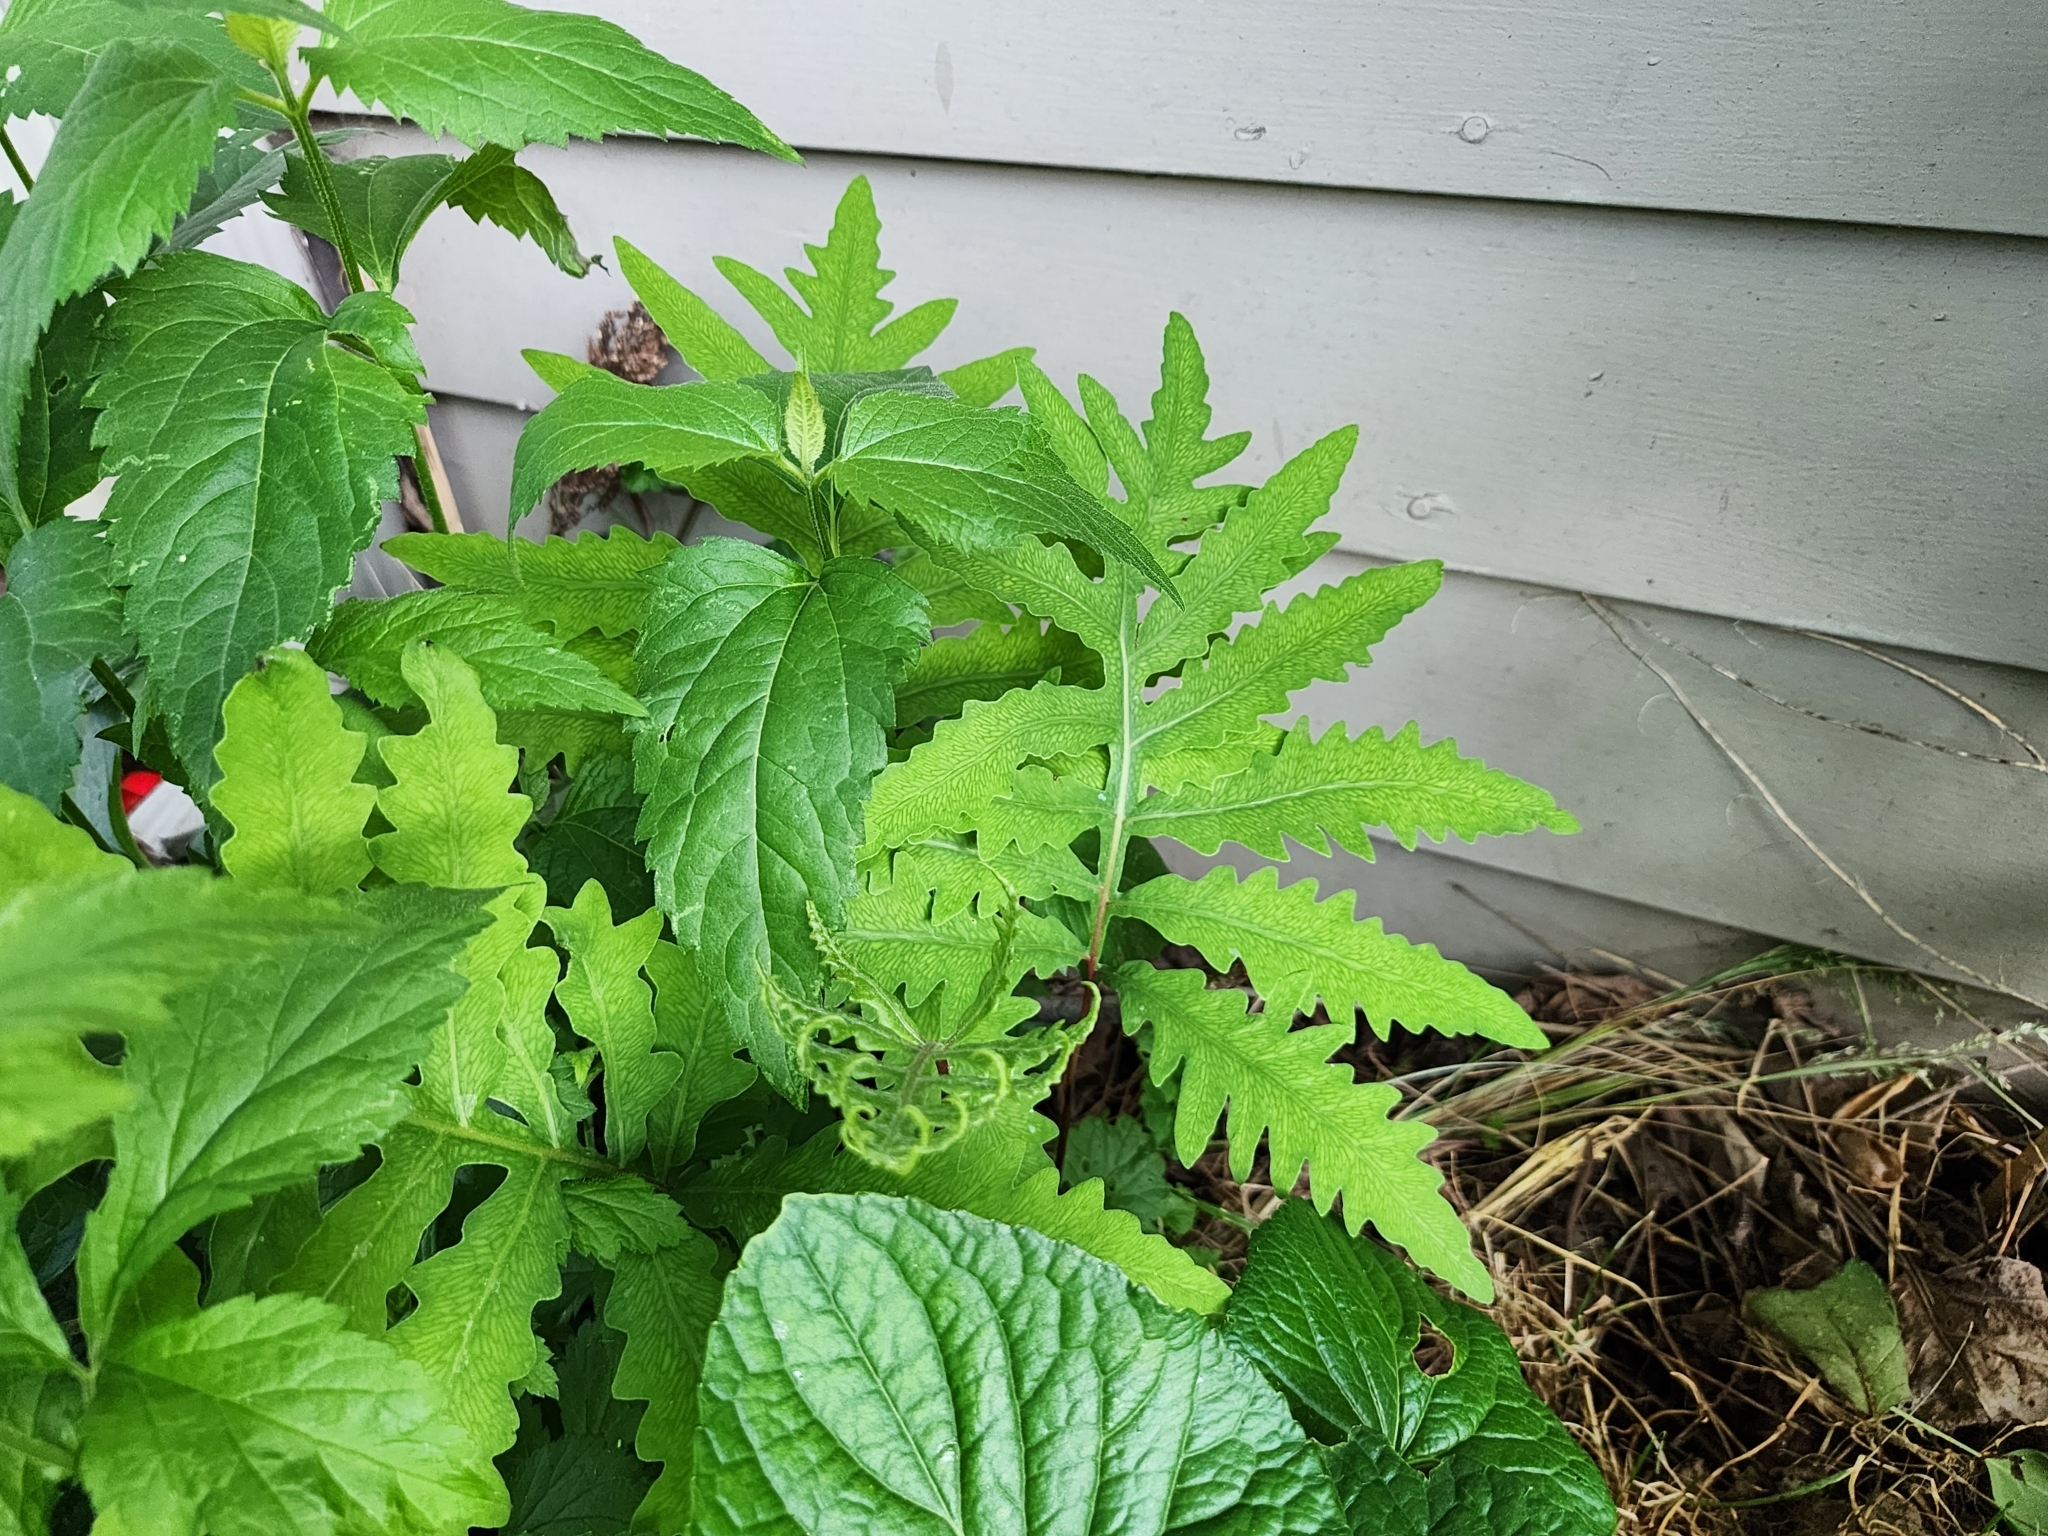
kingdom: Plantae
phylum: Tracheophyta
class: Polypodiopsida
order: Polypodiales
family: Onocleaceae
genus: Onoclea
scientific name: Onoclea sensibilis
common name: Sensitive fern
